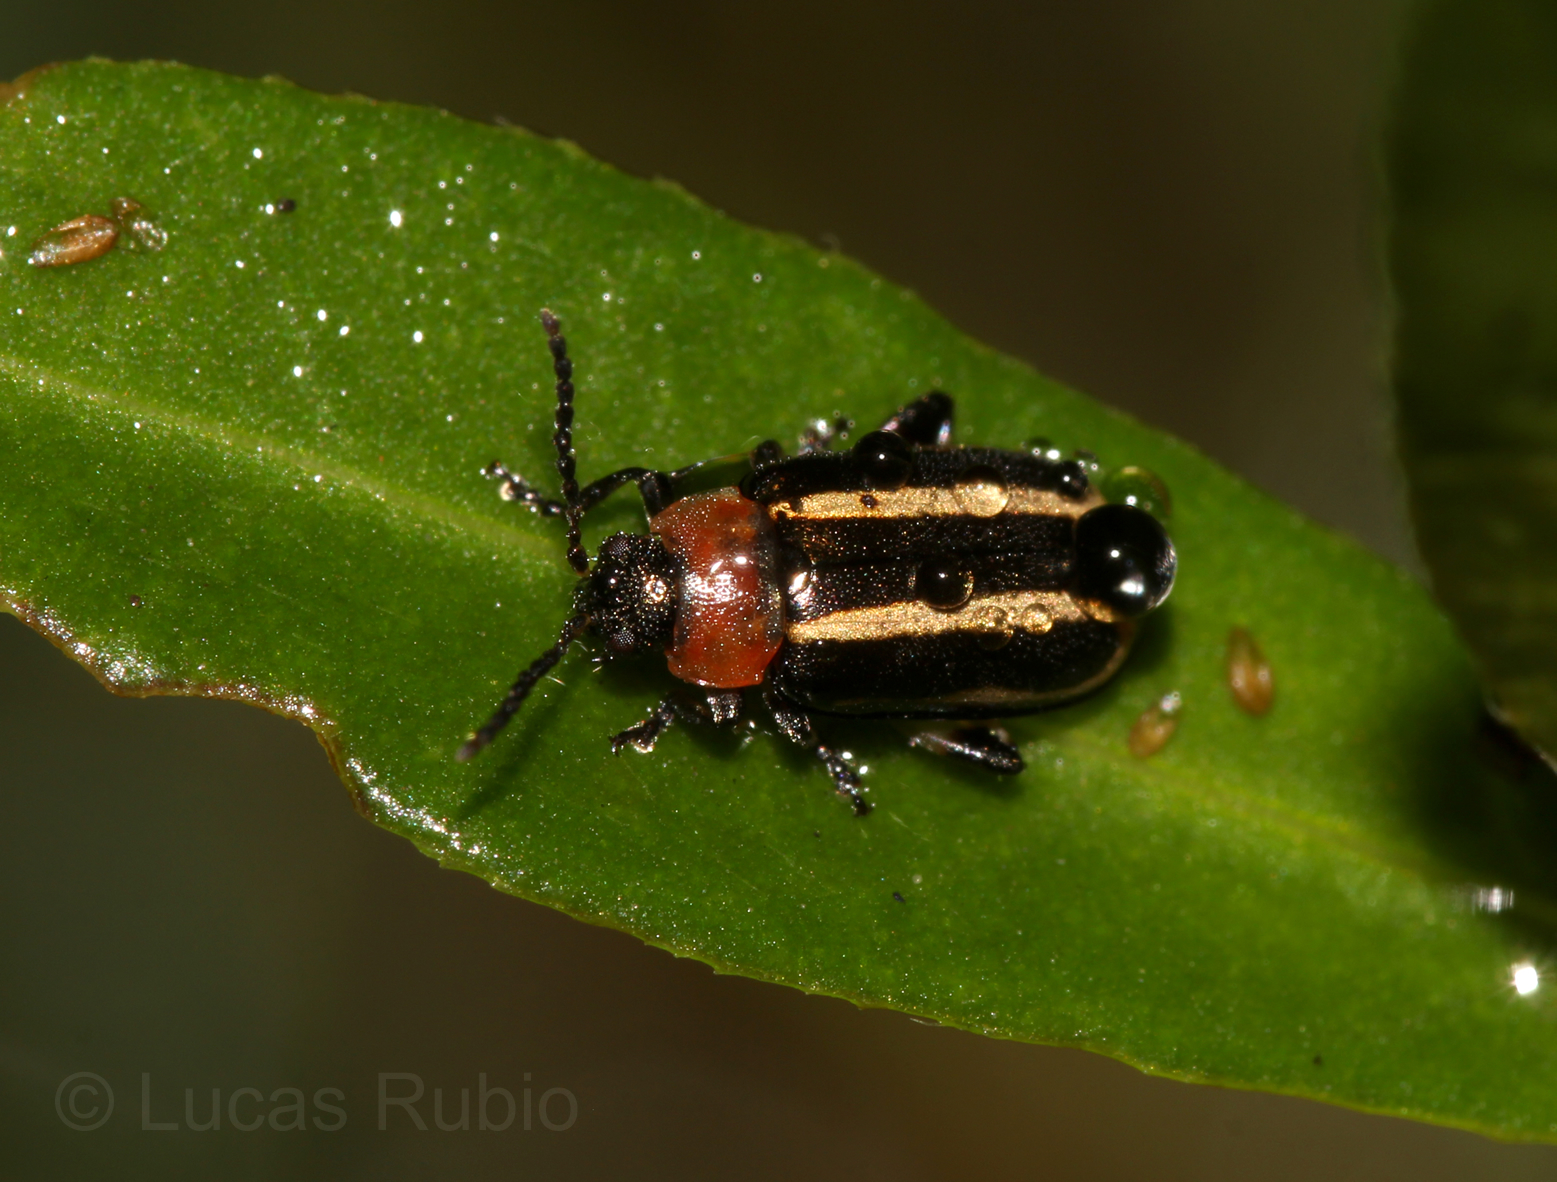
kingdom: Animalia
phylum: Arthropoda
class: Insecta
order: Coleoptera
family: Chrysomelidae
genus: Disonycha
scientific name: Disonycha
